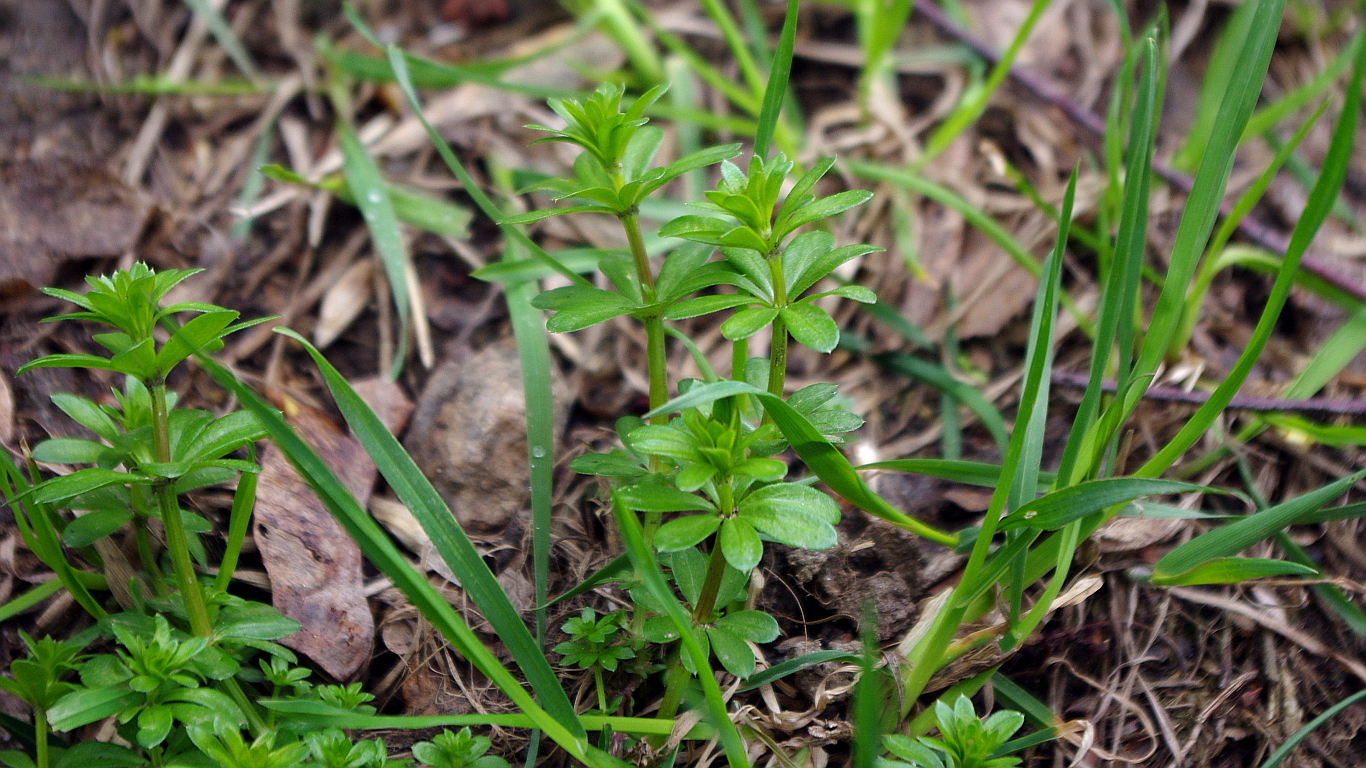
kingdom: Plantae
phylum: Tracheophyta
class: Magnoliopsida
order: Gentianales
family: Rubiaceae
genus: Galium
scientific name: Galium mollugo
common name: Hedge bedstraw
